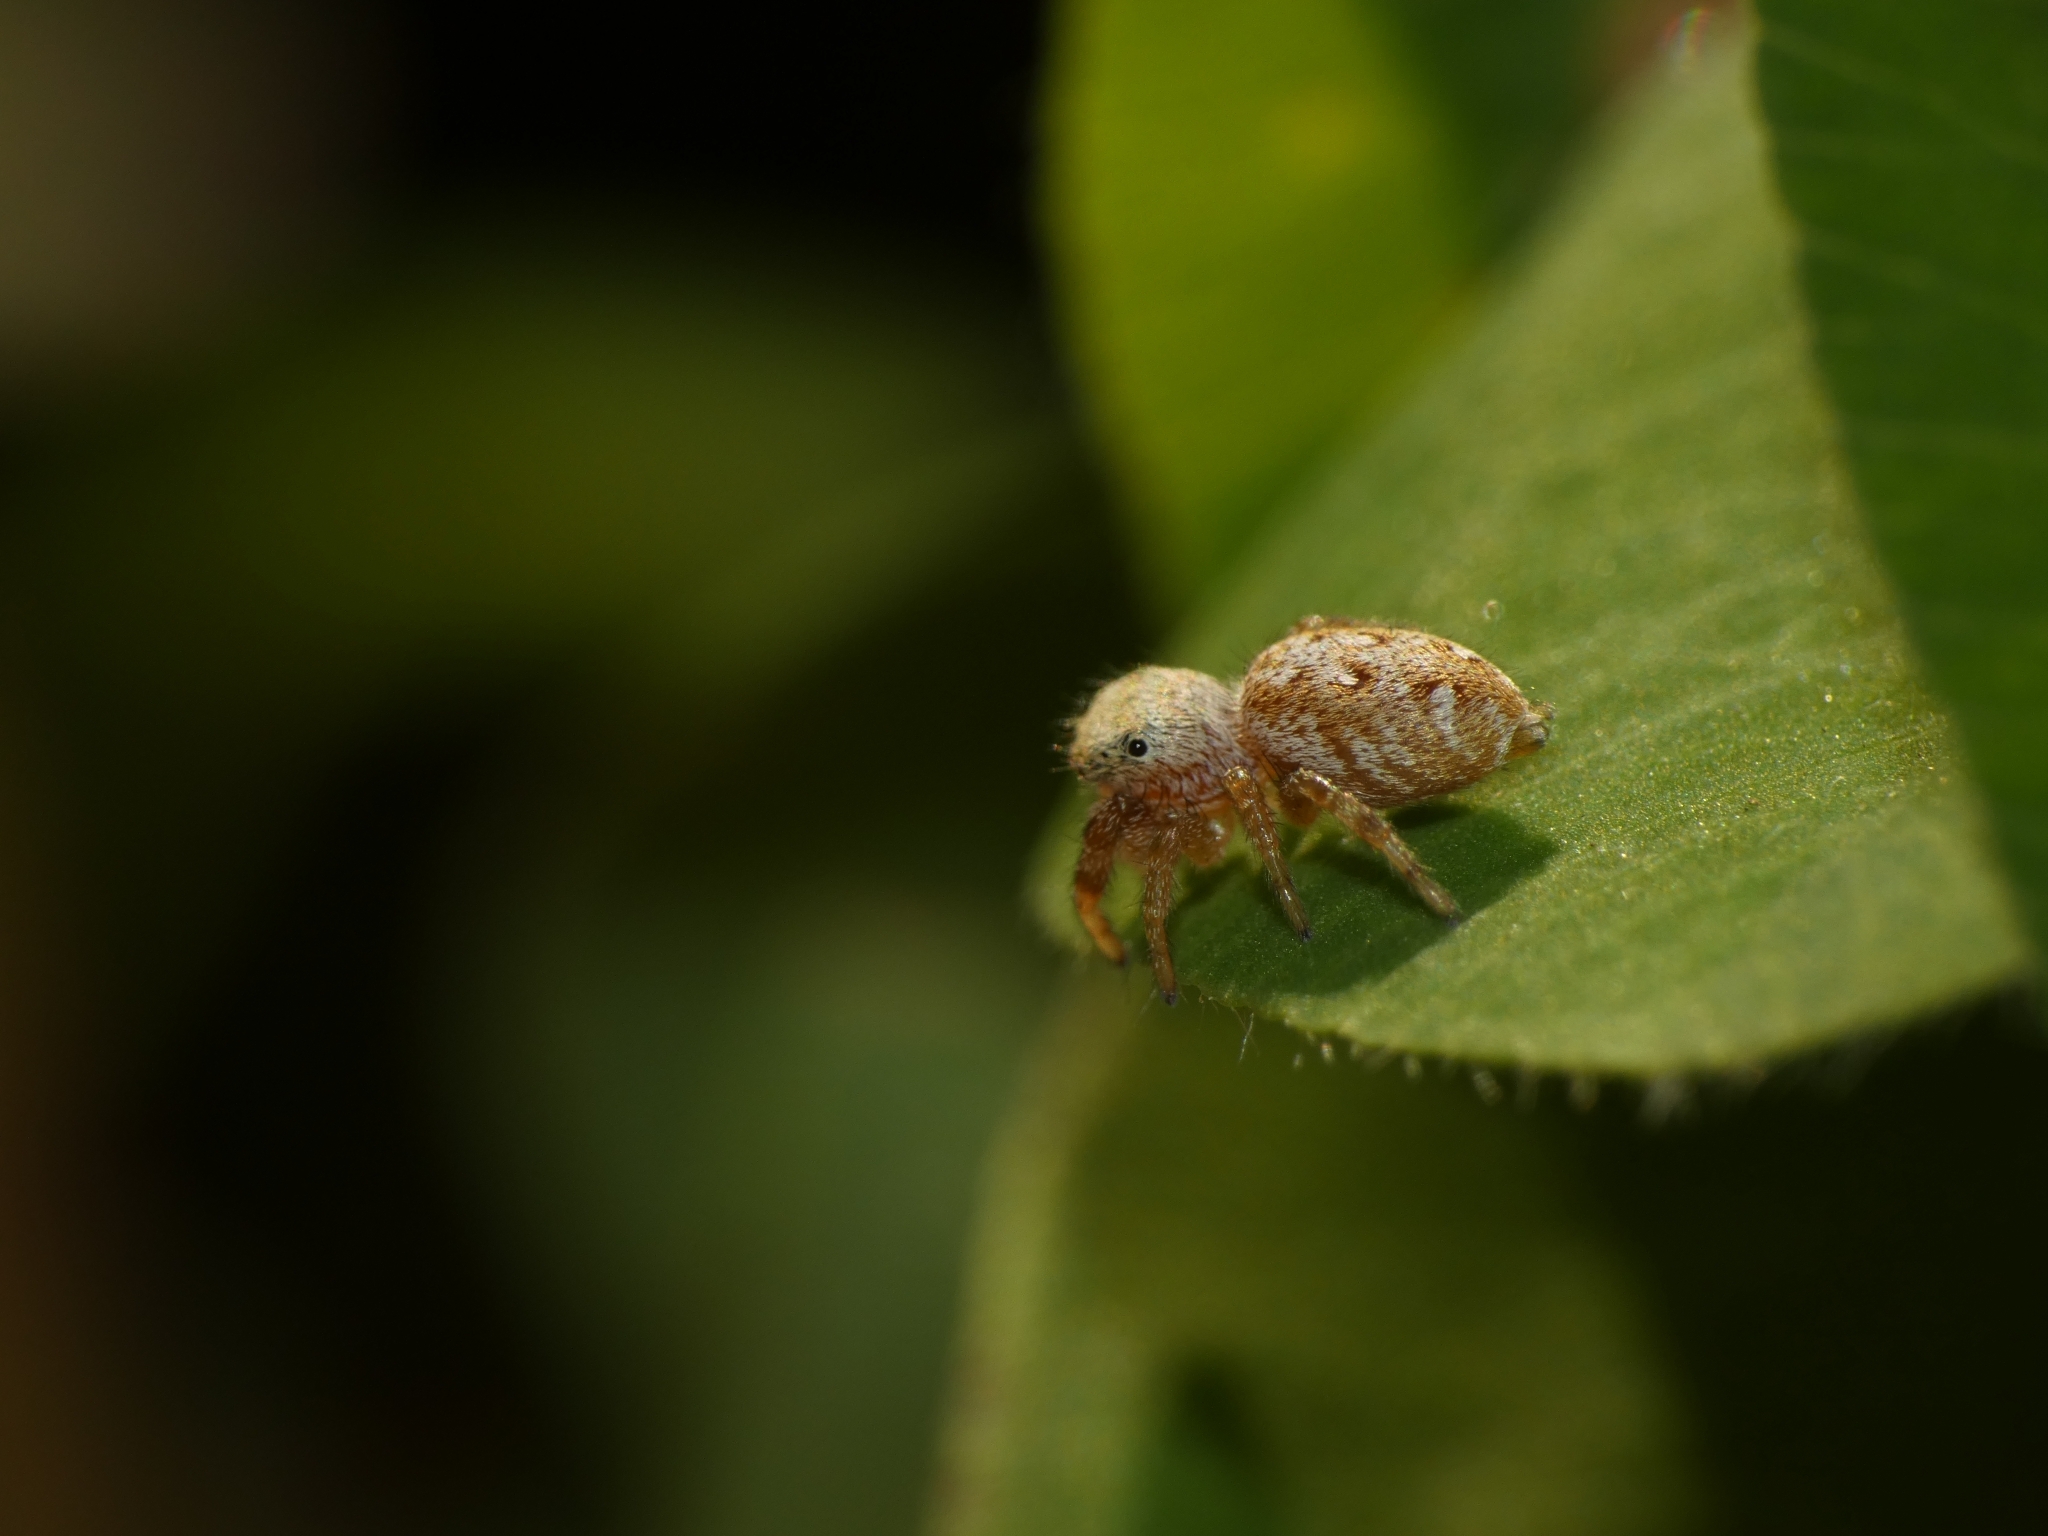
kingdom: Animalia
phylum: Arthropoda
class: Arachnida
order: Araneae
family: Salticidae
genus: Pelegrina
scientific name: Pelegrina balia
